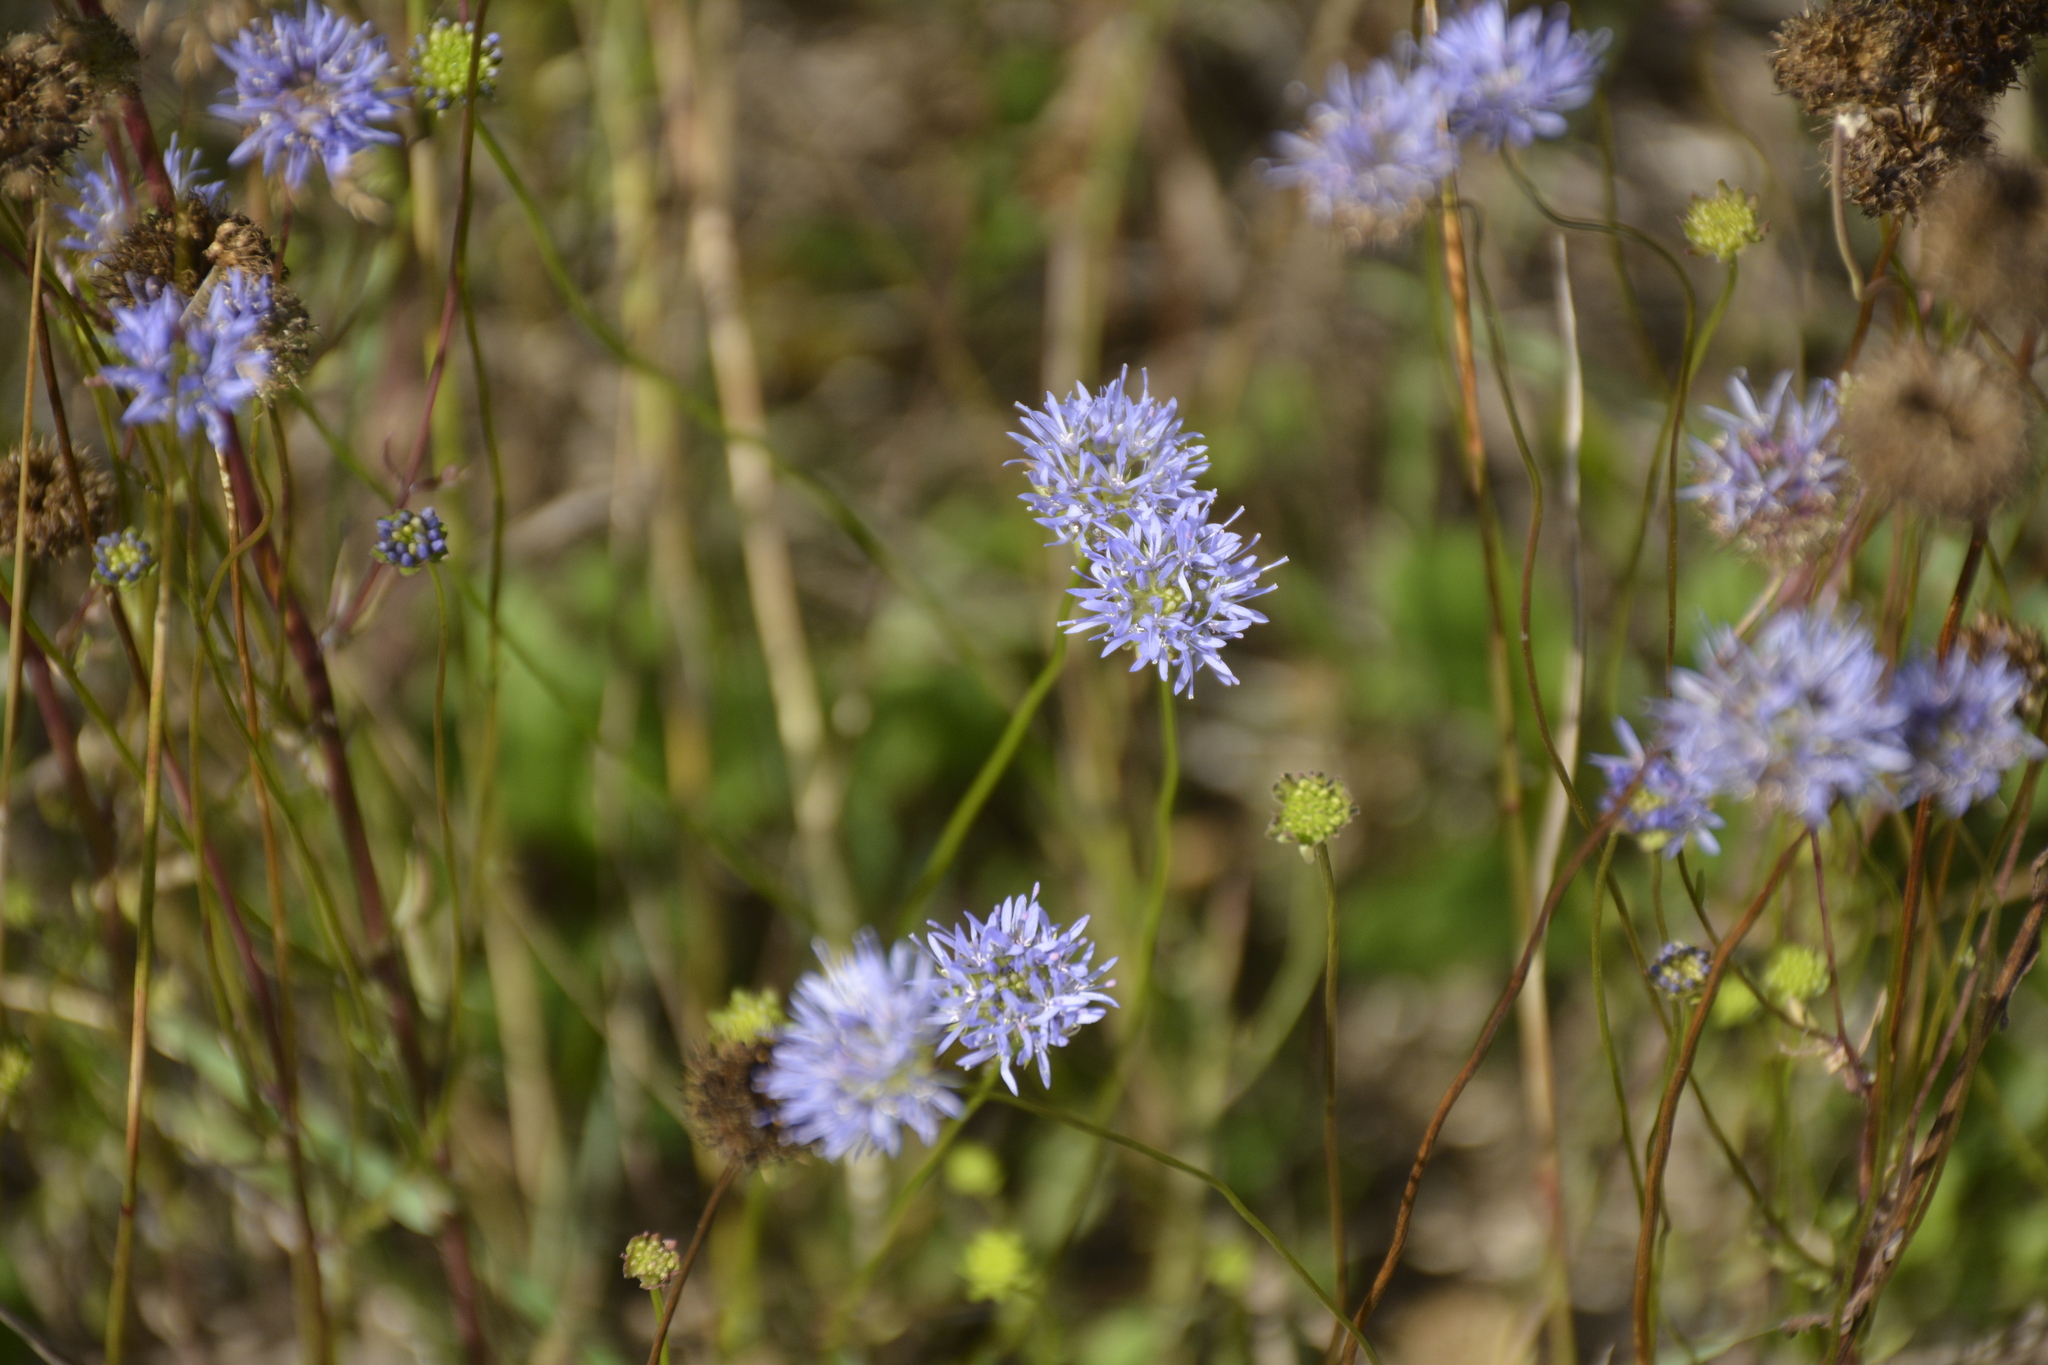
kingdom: Plantae
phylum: Tracheophyta
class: Magnoliopsida
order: Asterales
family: Campanulaceae
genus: Jasione
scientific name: Jasione montana
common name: Sheep's-bit
